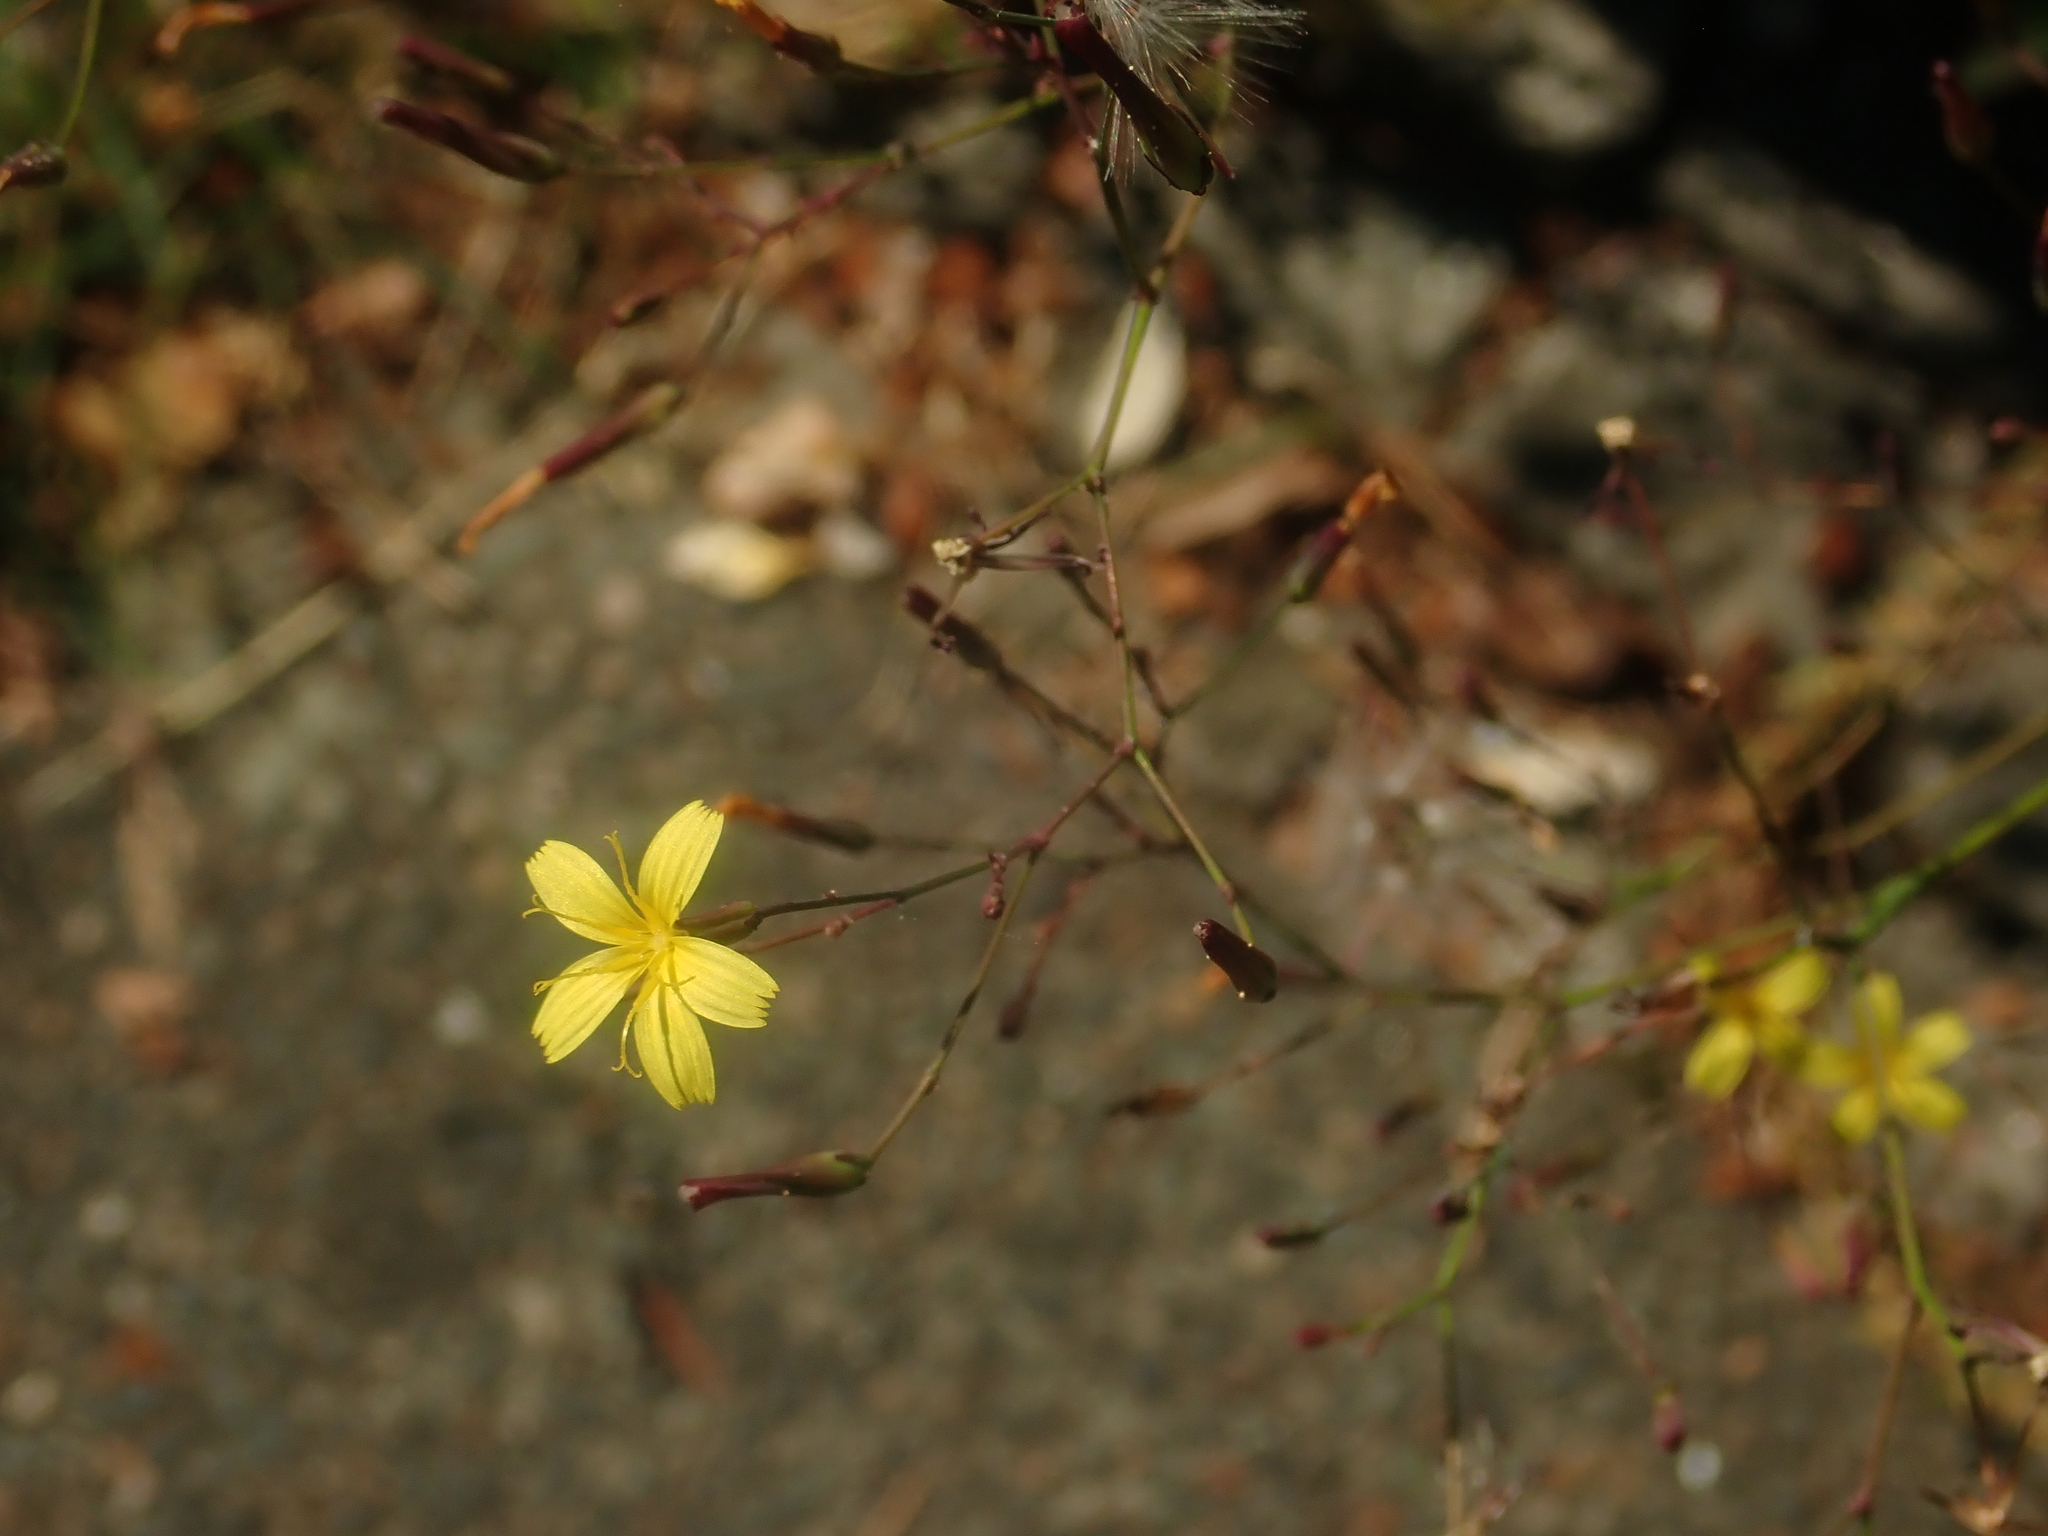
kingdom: Plantae
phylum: Tracheophyta
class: Magnoliopsida
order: Asterales
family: Asteraceae
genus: Mycelis
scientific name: Mycelis muralis
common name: Wall lettuce
